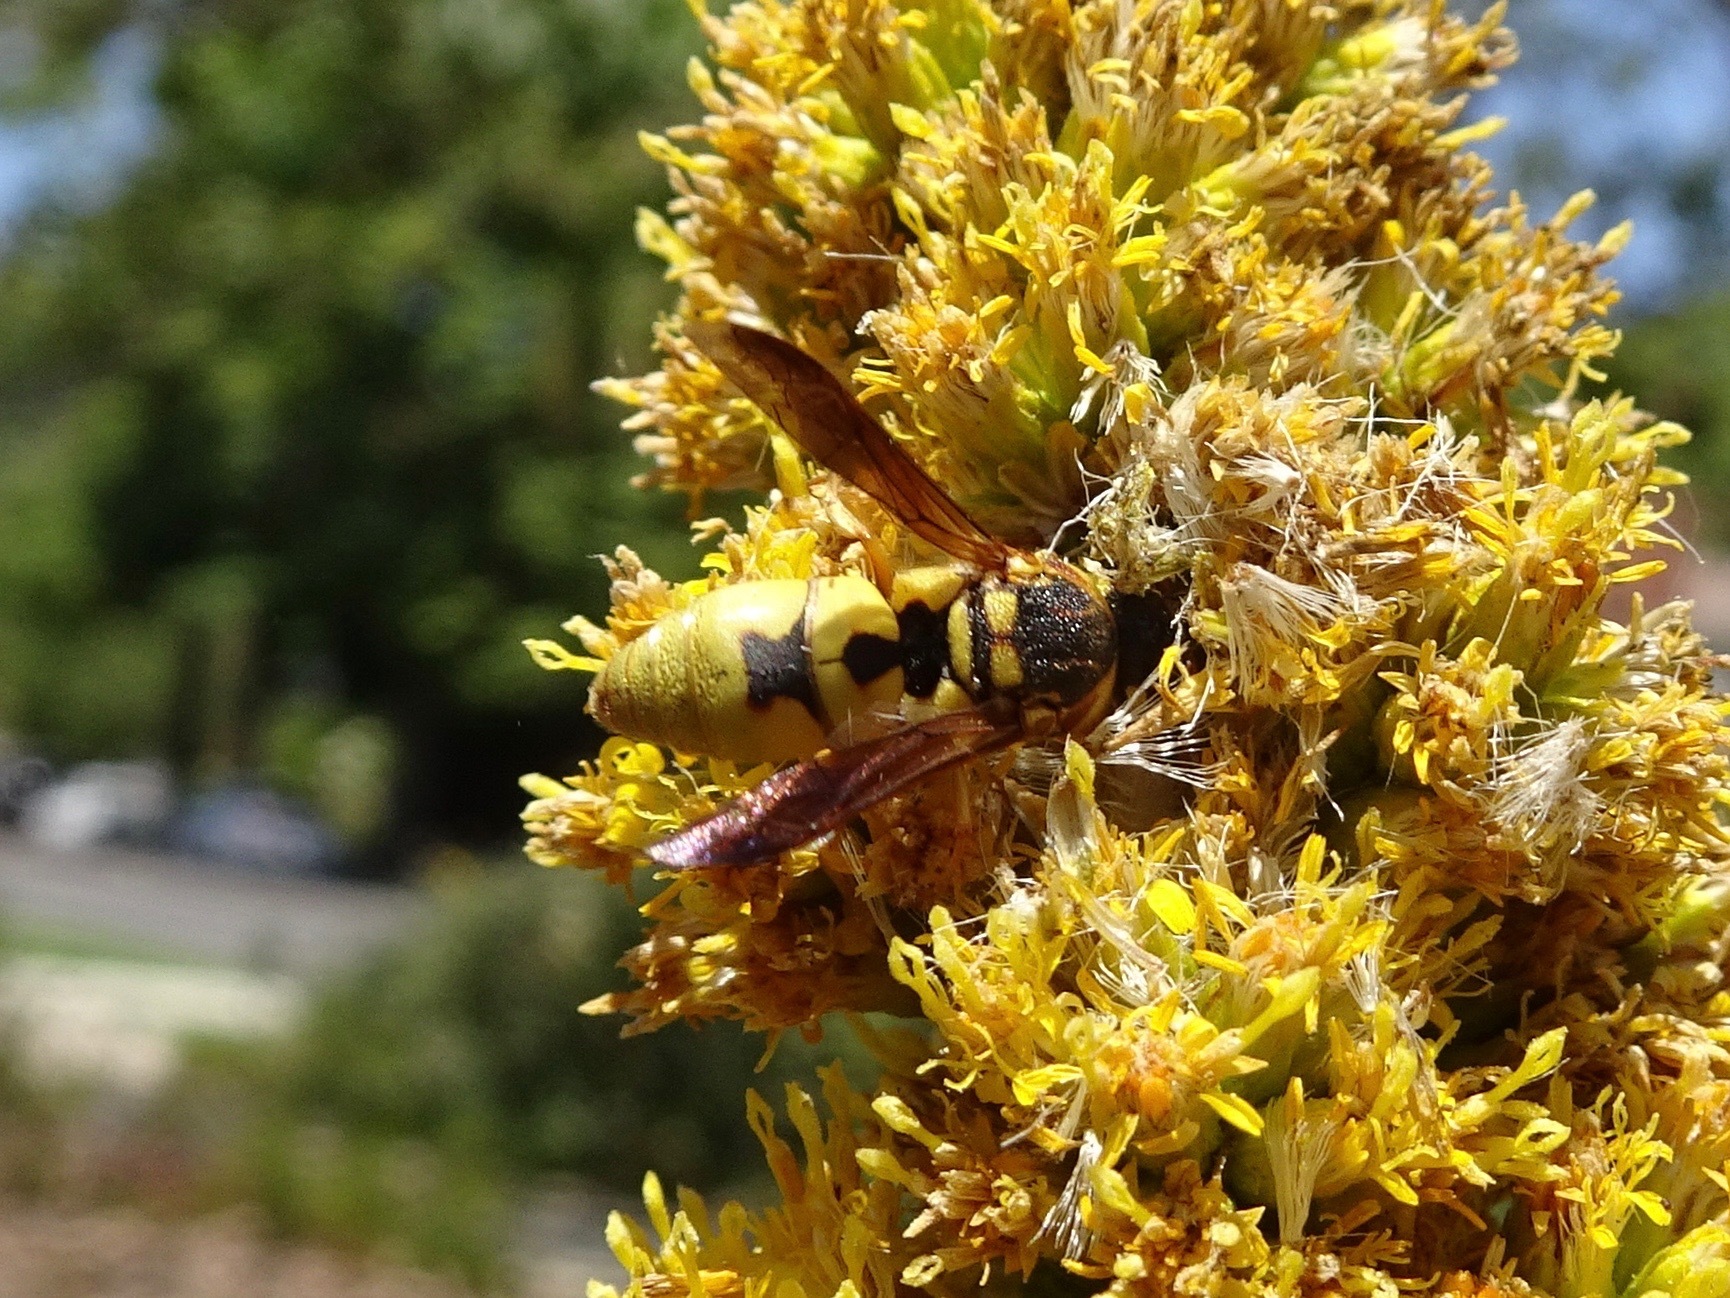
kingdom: Animalia
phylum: Arthropoda
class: Insecta
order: Hymenoptera
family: Eumenidae
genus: Euodynerus
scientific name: Euodynerus hidalgo
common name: Wasp
